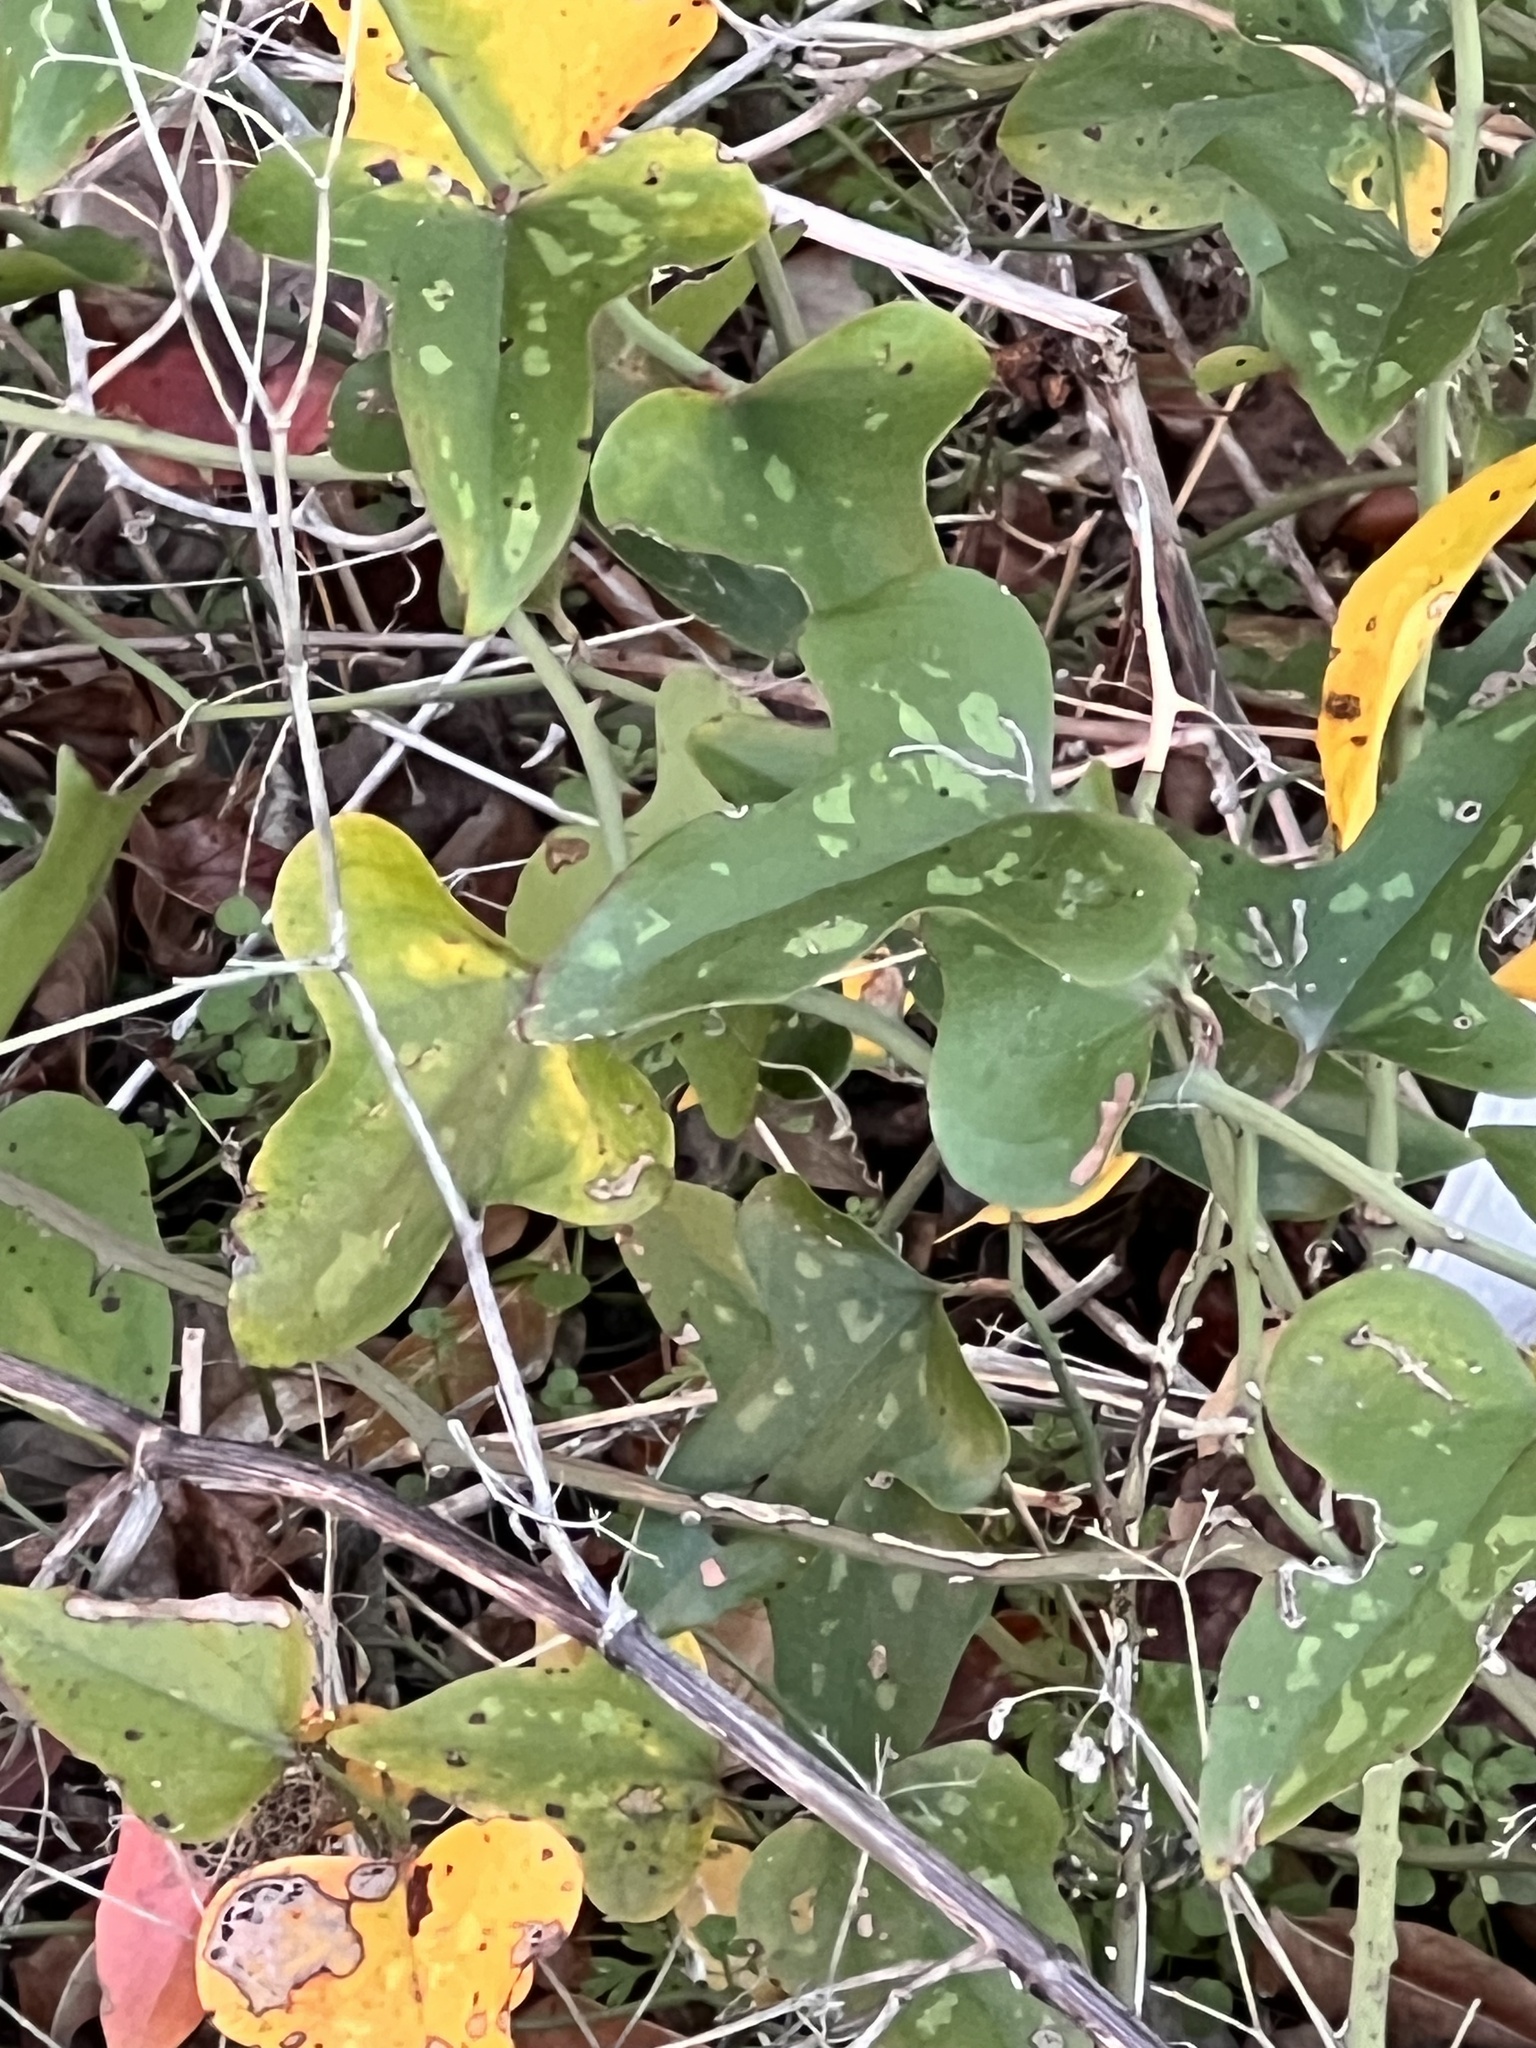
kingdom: Plantae
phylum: Tracheophyta
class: Liliopsida
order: Liliales
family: Smilacaceae
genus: Smilax
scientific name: Smilax bona-nox
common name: Catbrier
